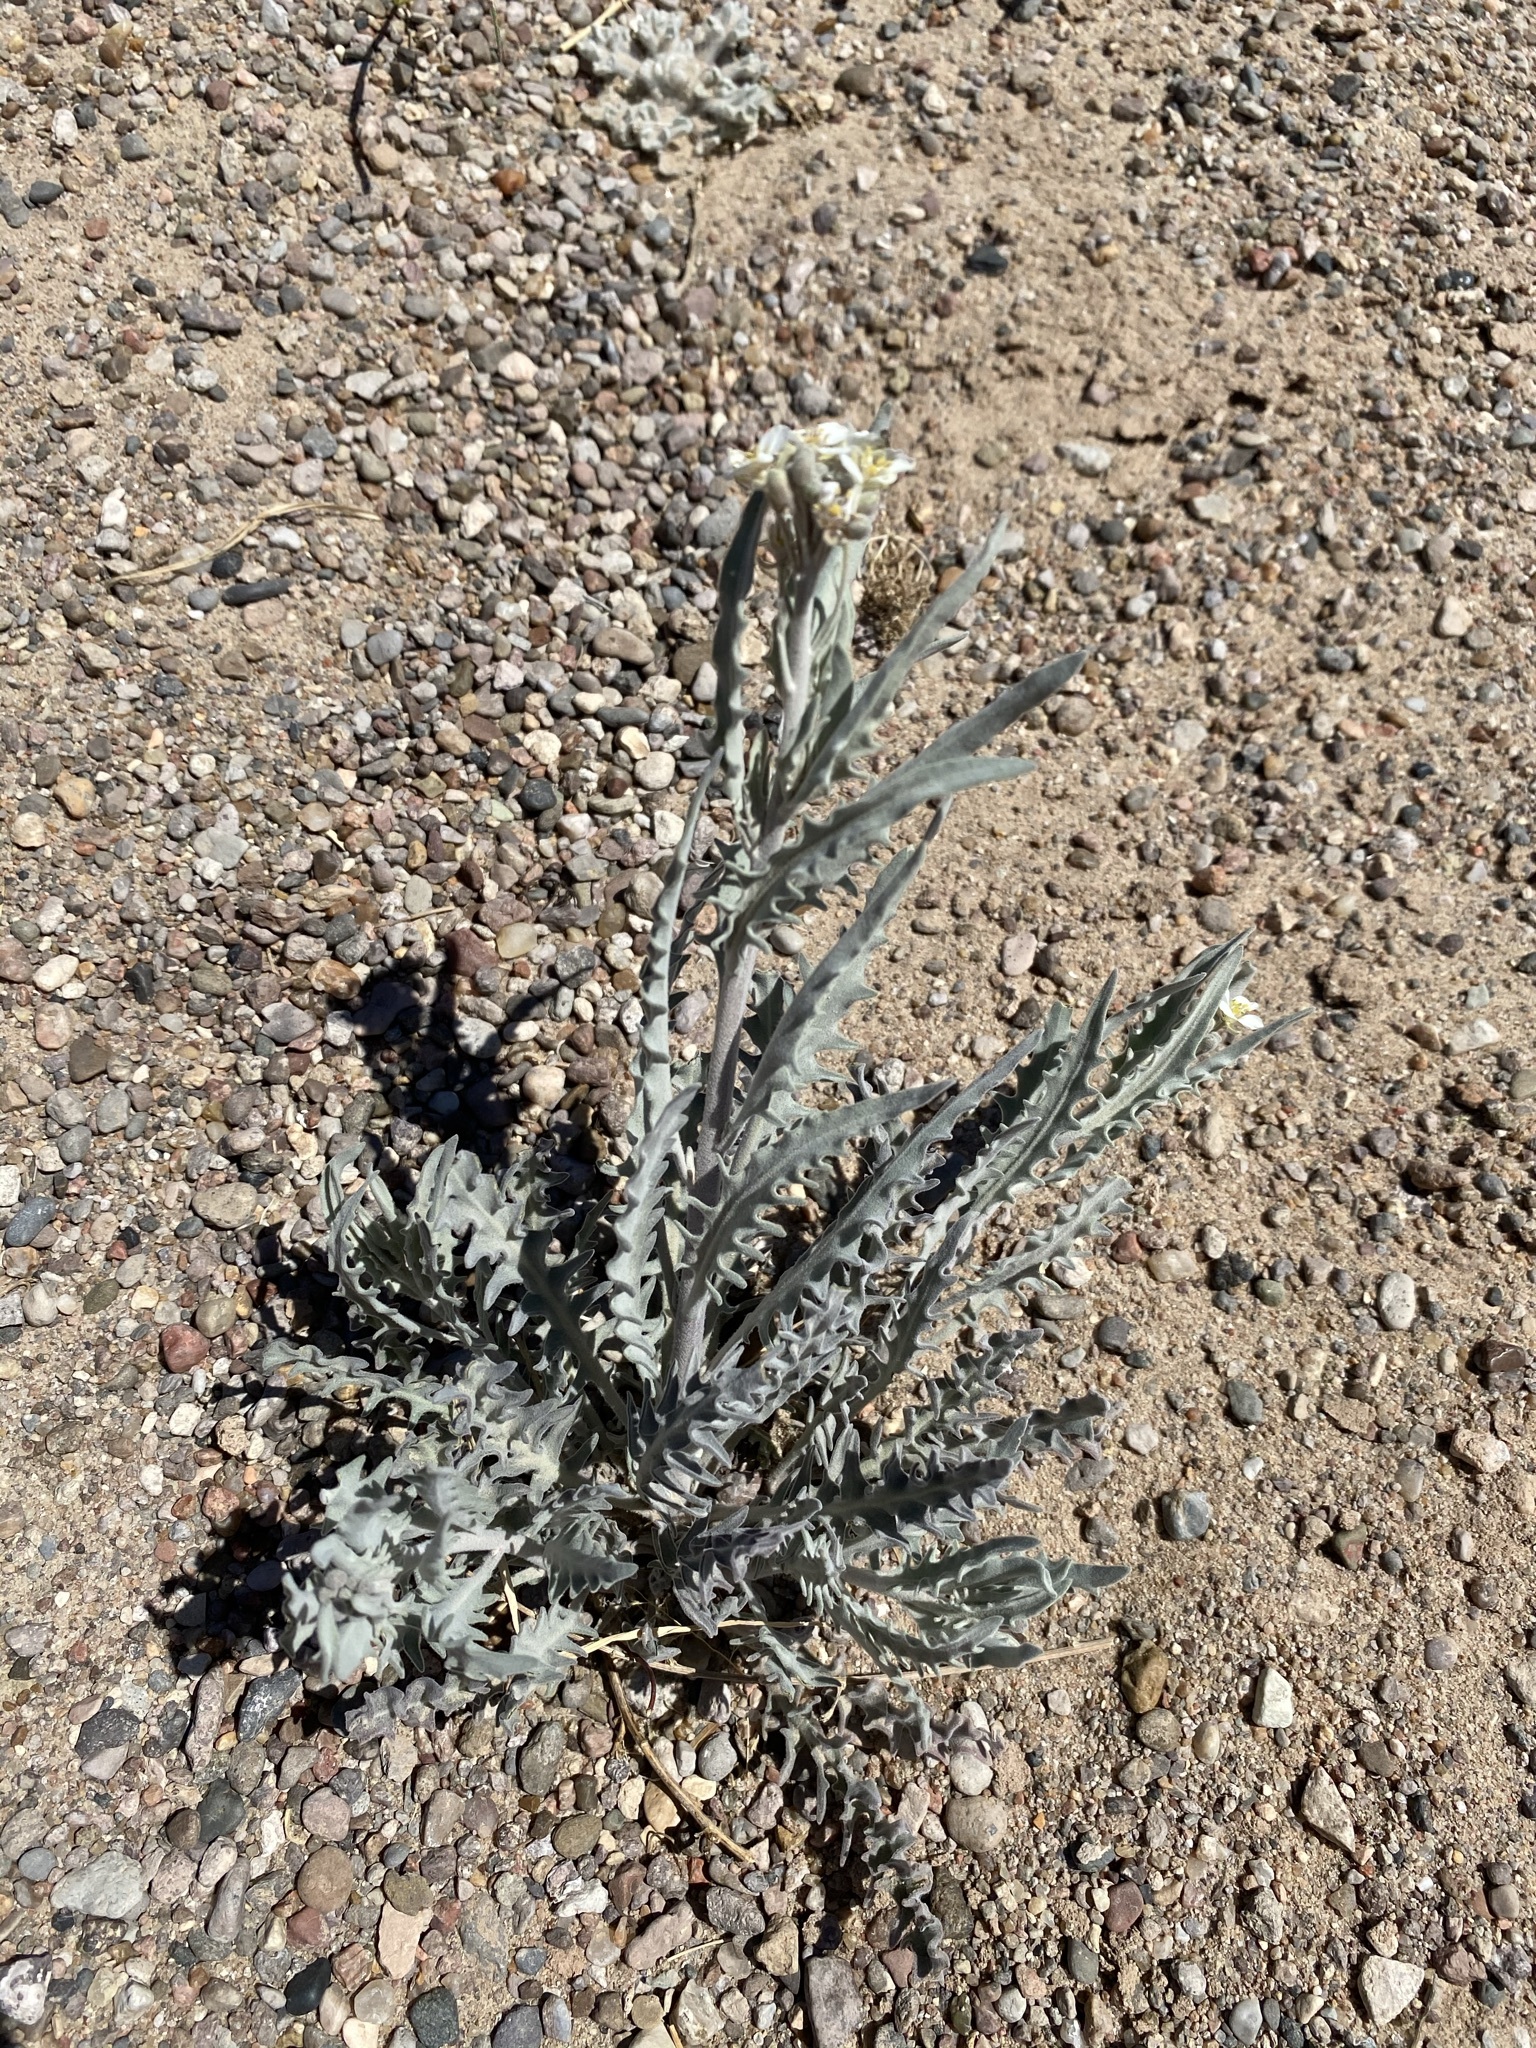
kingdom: Plantae
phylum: Tracheophyta
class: Magnoliopsida
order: Brassicales
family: Brassicaceae
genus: Dimorphocarpa
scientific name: Dimorphocarpa wislizenii
